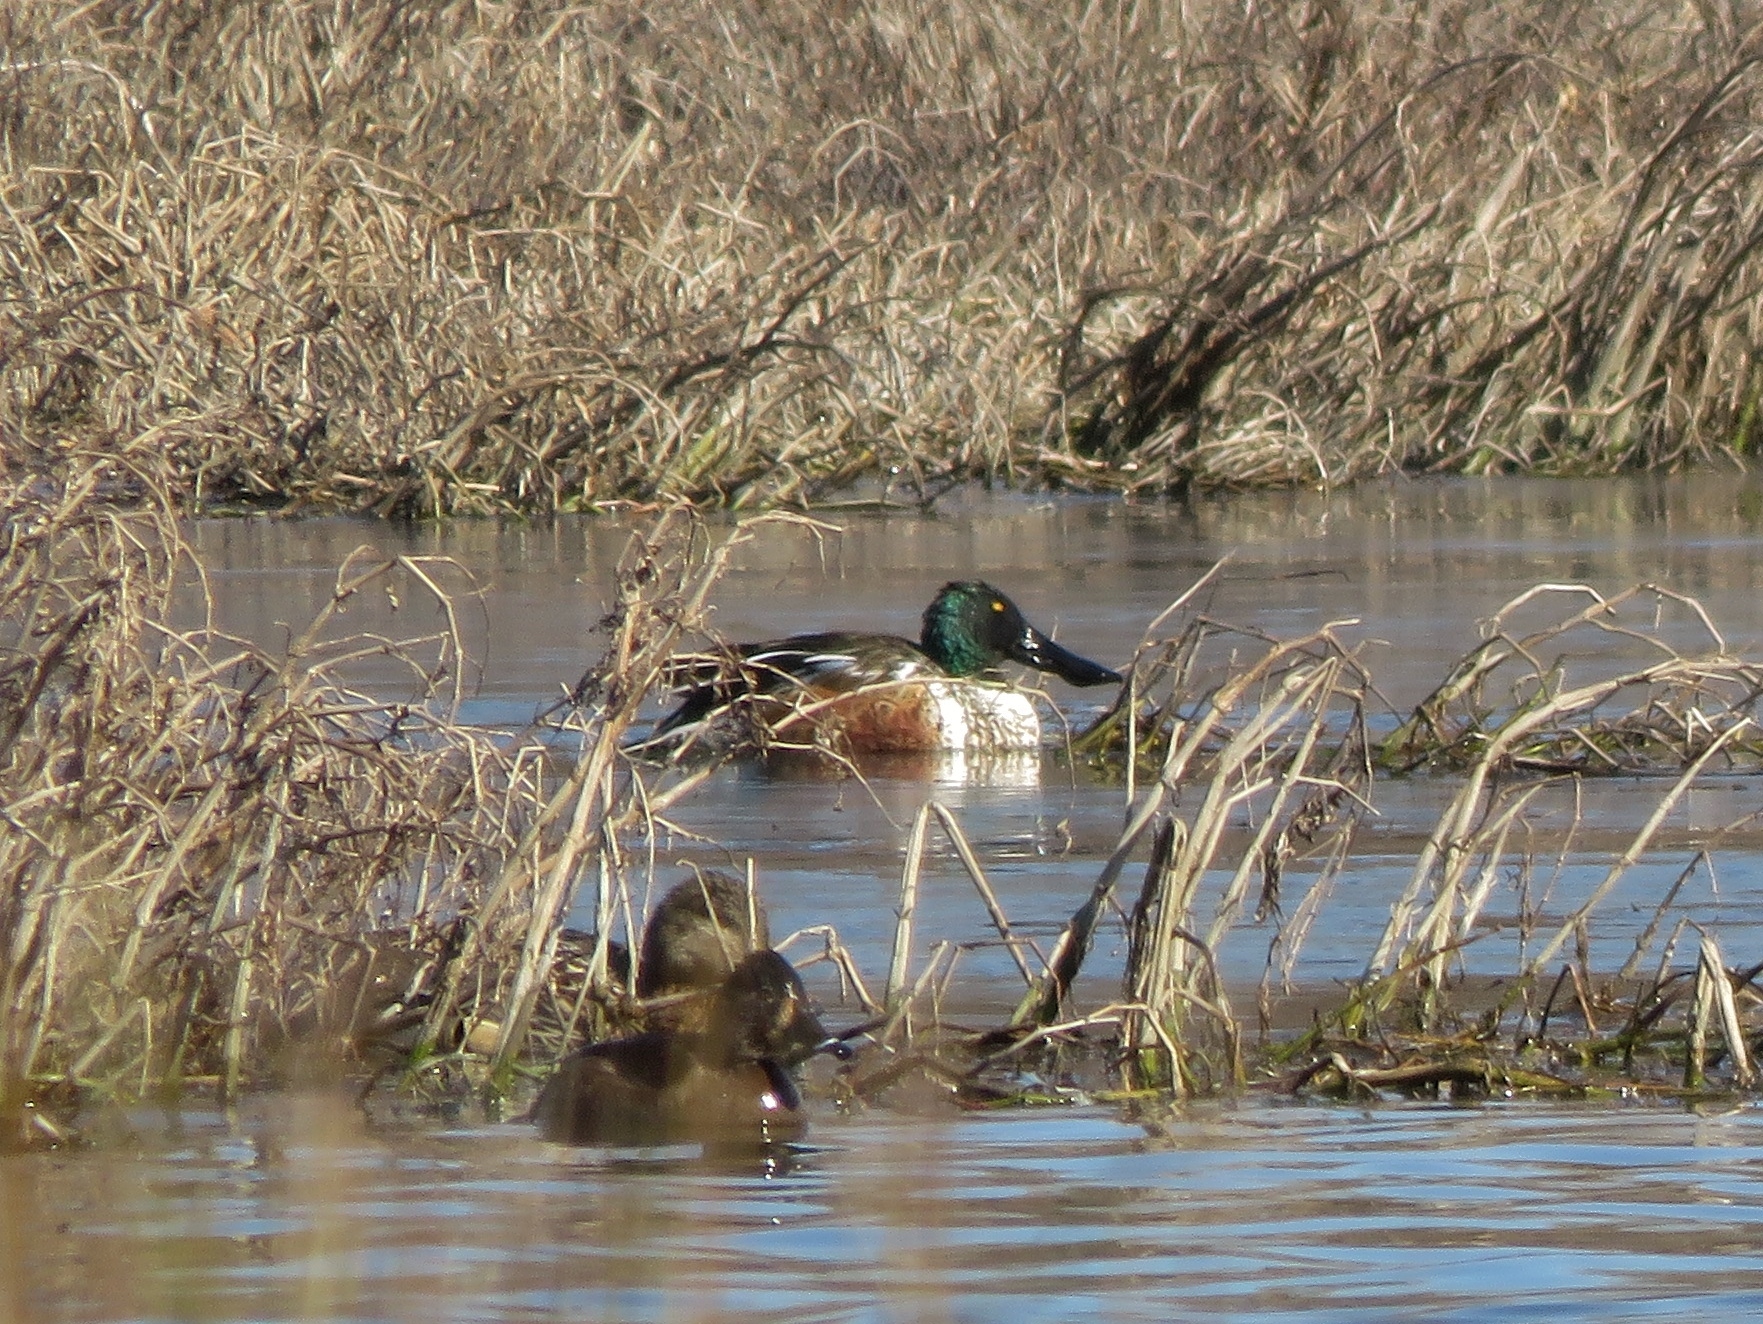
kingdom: Animalia
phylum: Chordata
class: Aves
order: Anseriformes
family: Anatidae
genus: Spatula
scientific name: Spatula clypeata
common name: Northern shoveler
